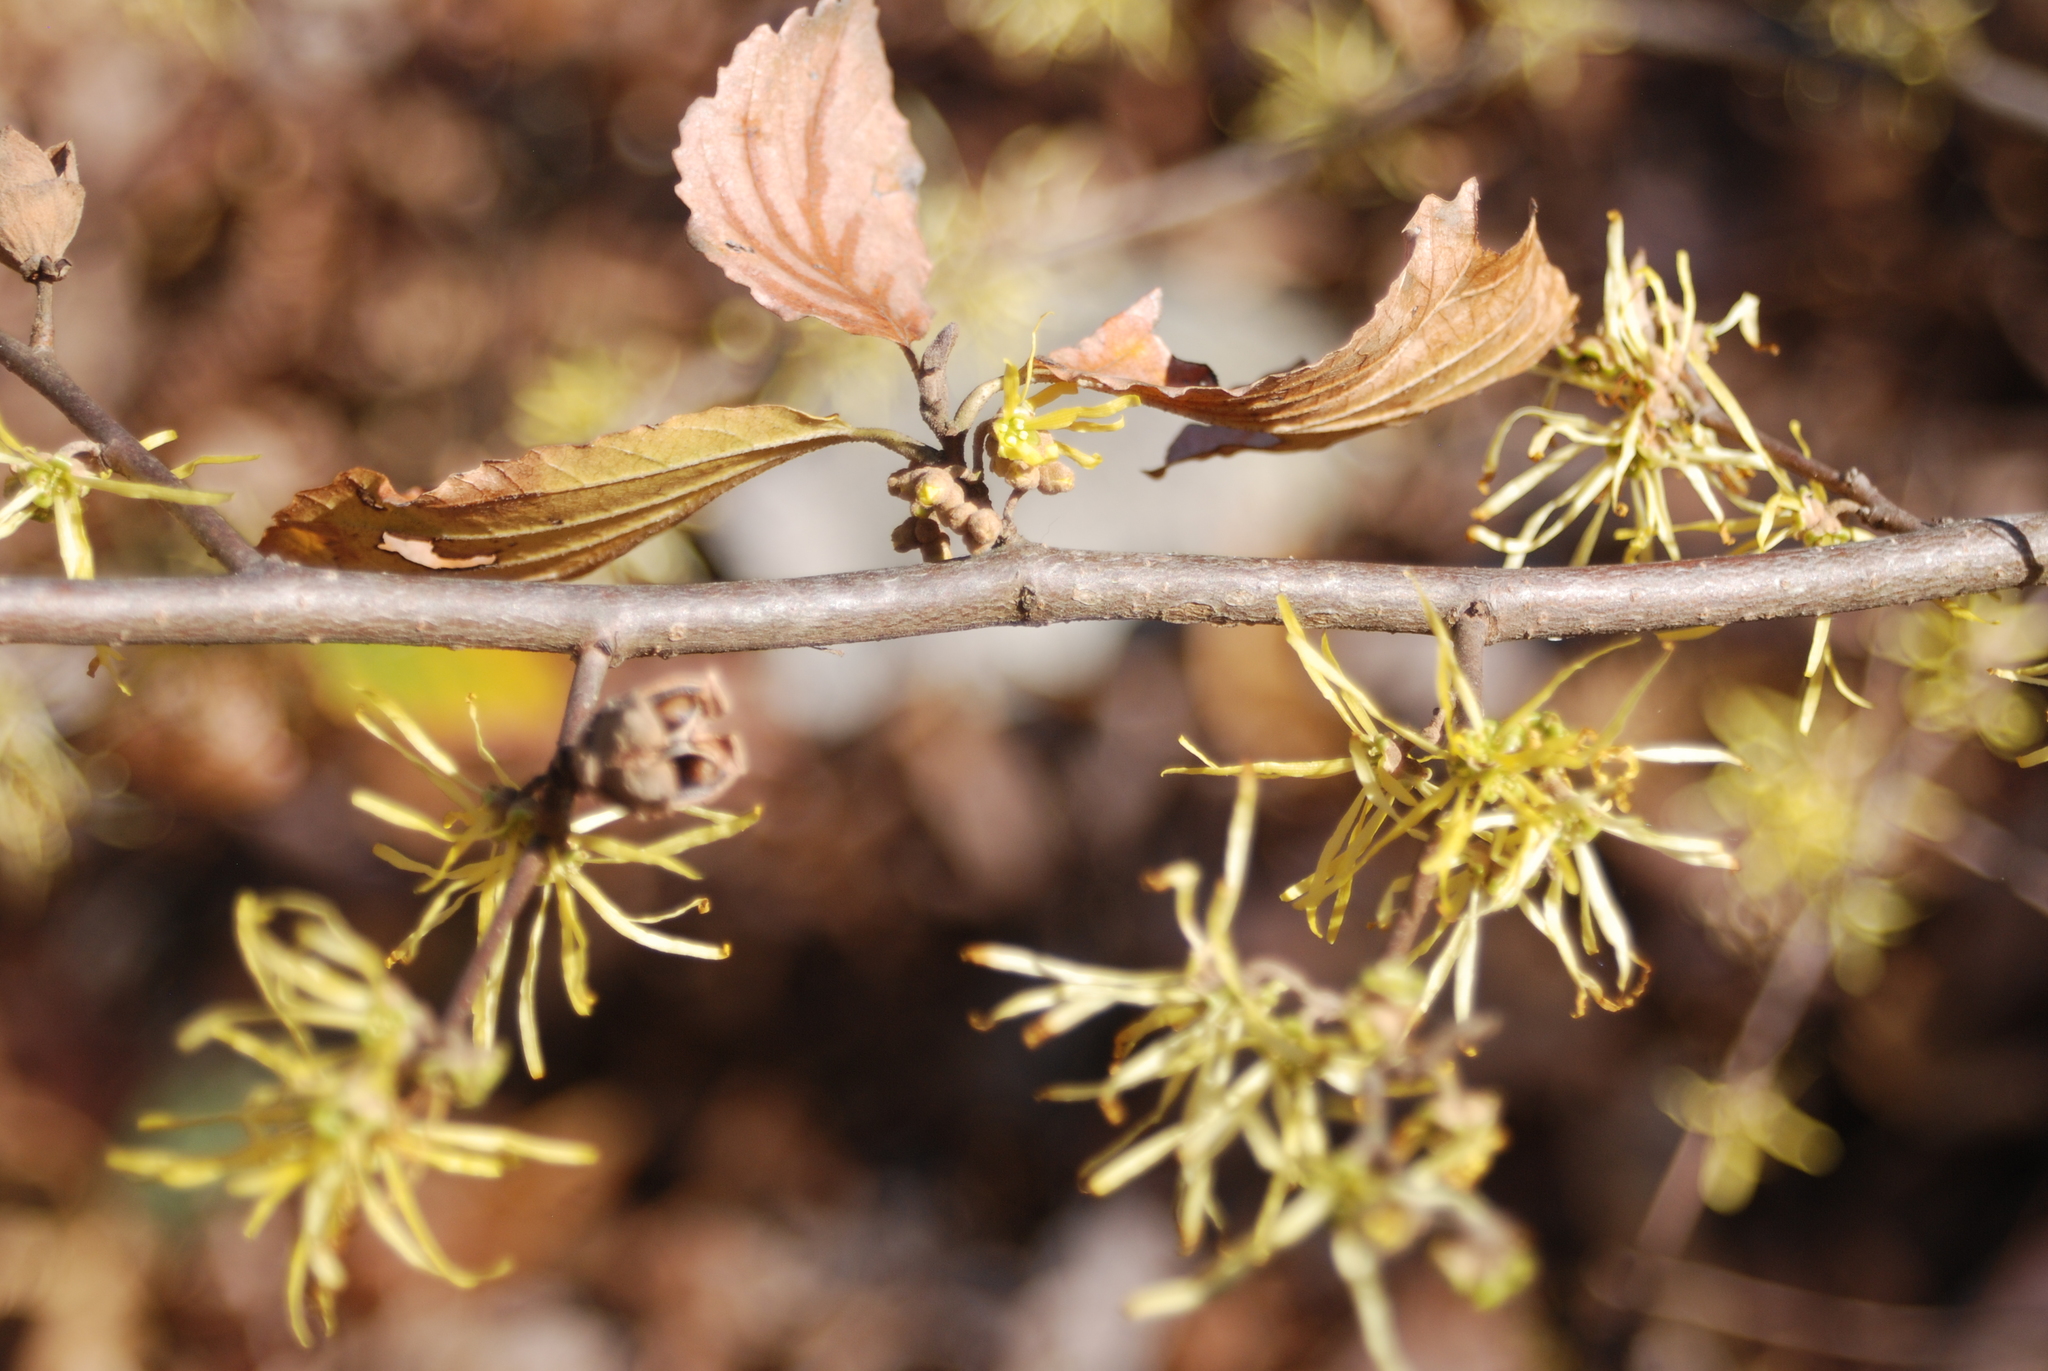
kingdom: Plantae
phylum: Tracheophyta
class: Magnoliopsida
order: Saxifragales
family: Hamamelidaceae
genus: Hamamelis
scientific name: Hamamelis virginiana
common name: Witch-hazel
